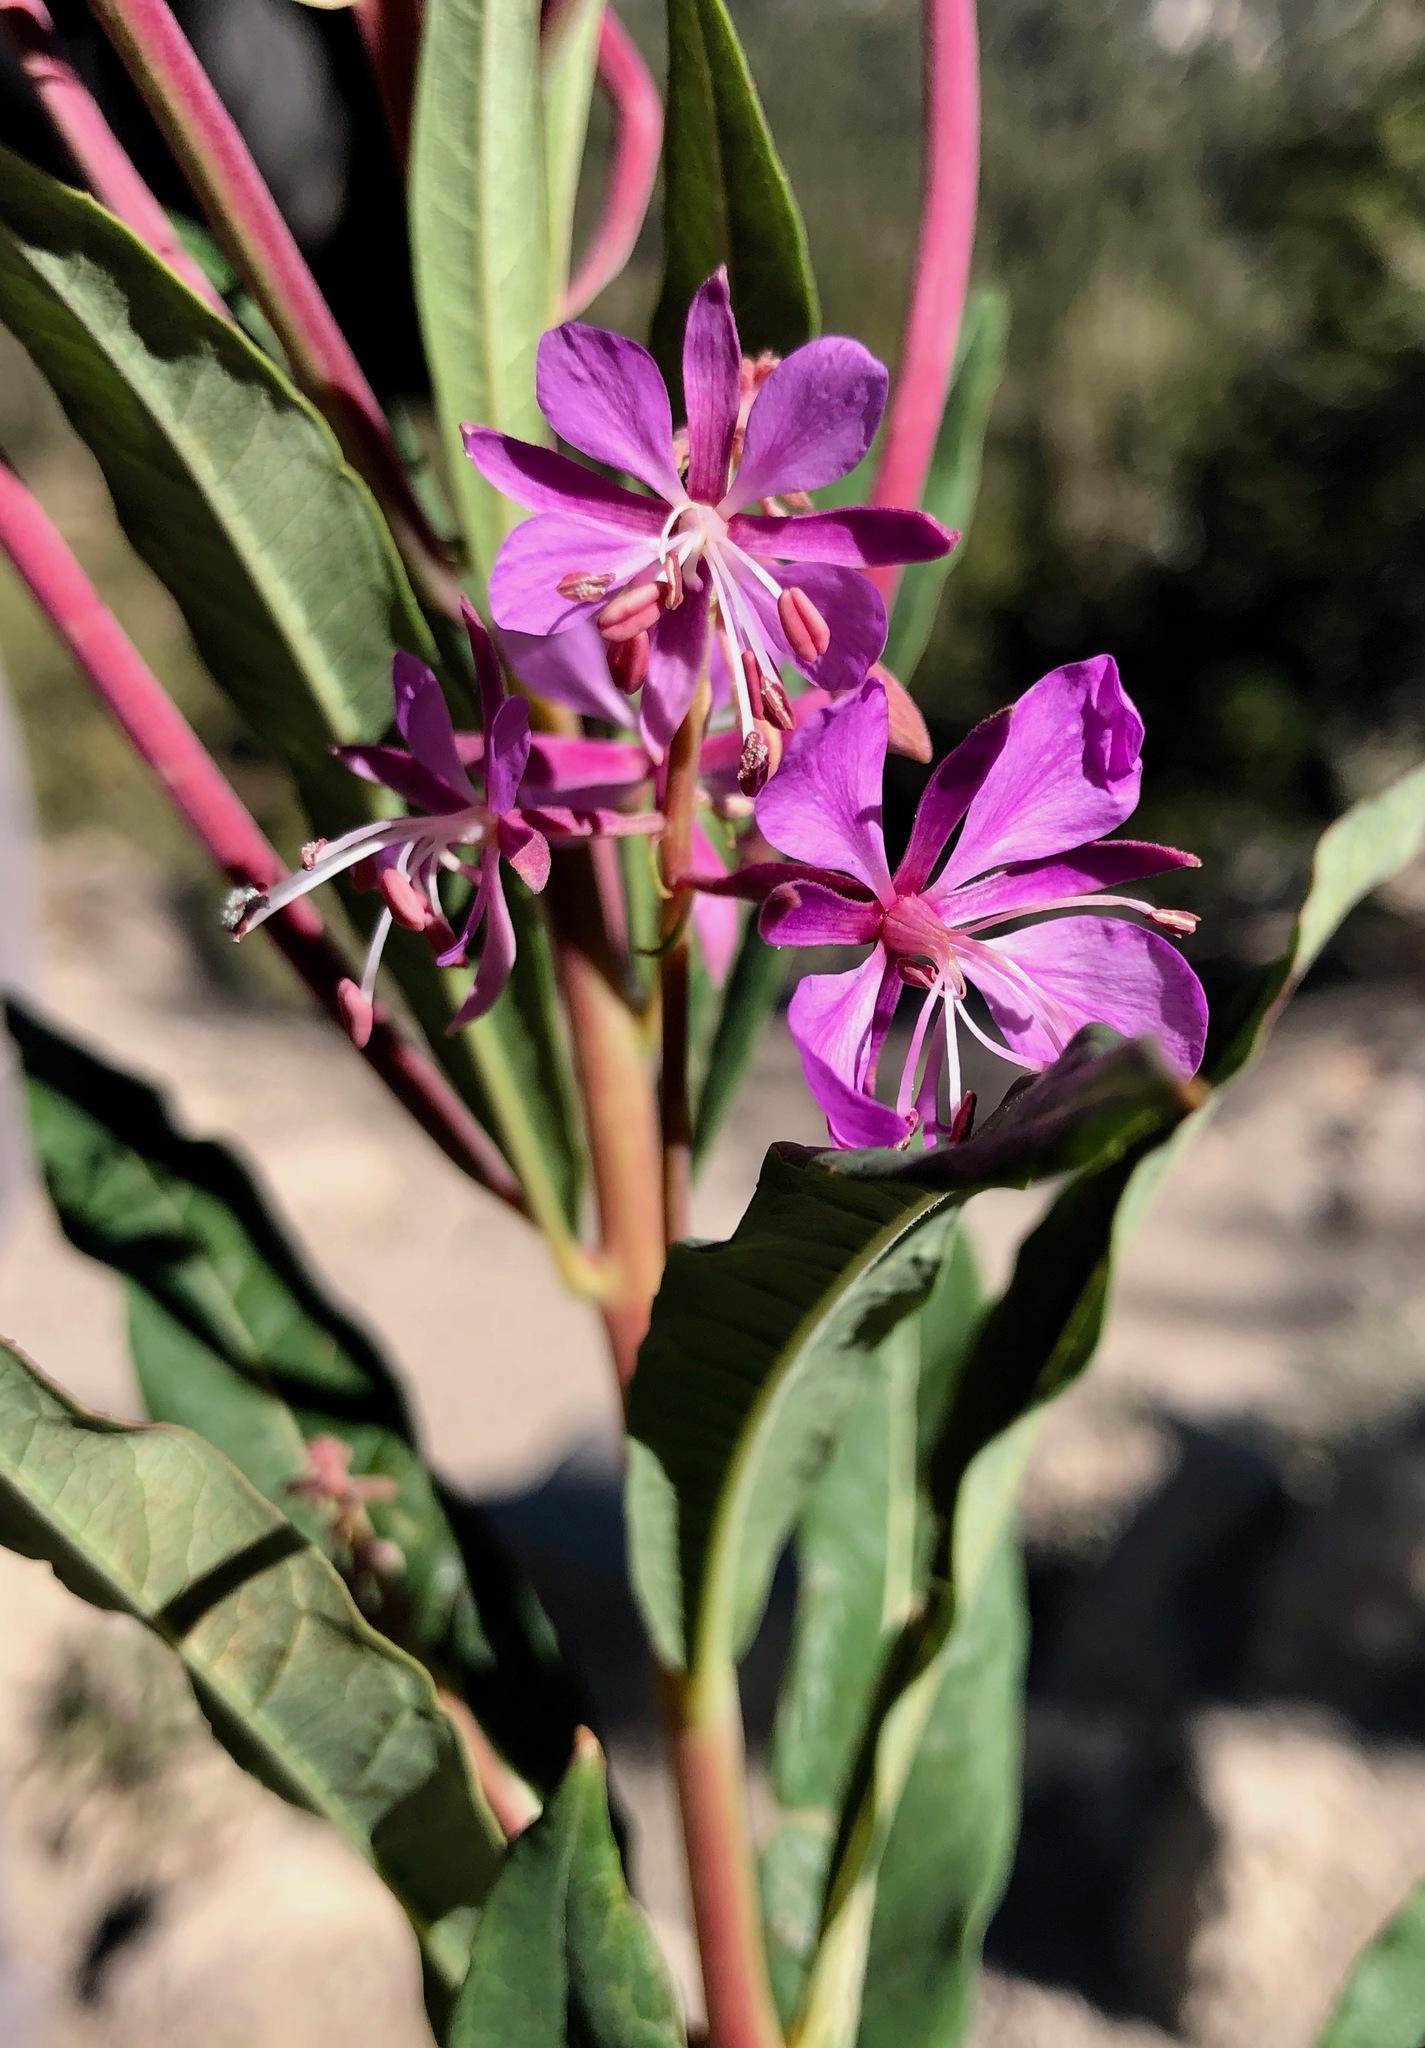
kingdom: Plantae
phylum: Tracheophyta
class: Magnoliopsida
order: Myrtales
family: Onagraceae
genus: Chamaenerion
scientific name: Chamaenerion angustifolium
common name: Fireweed
